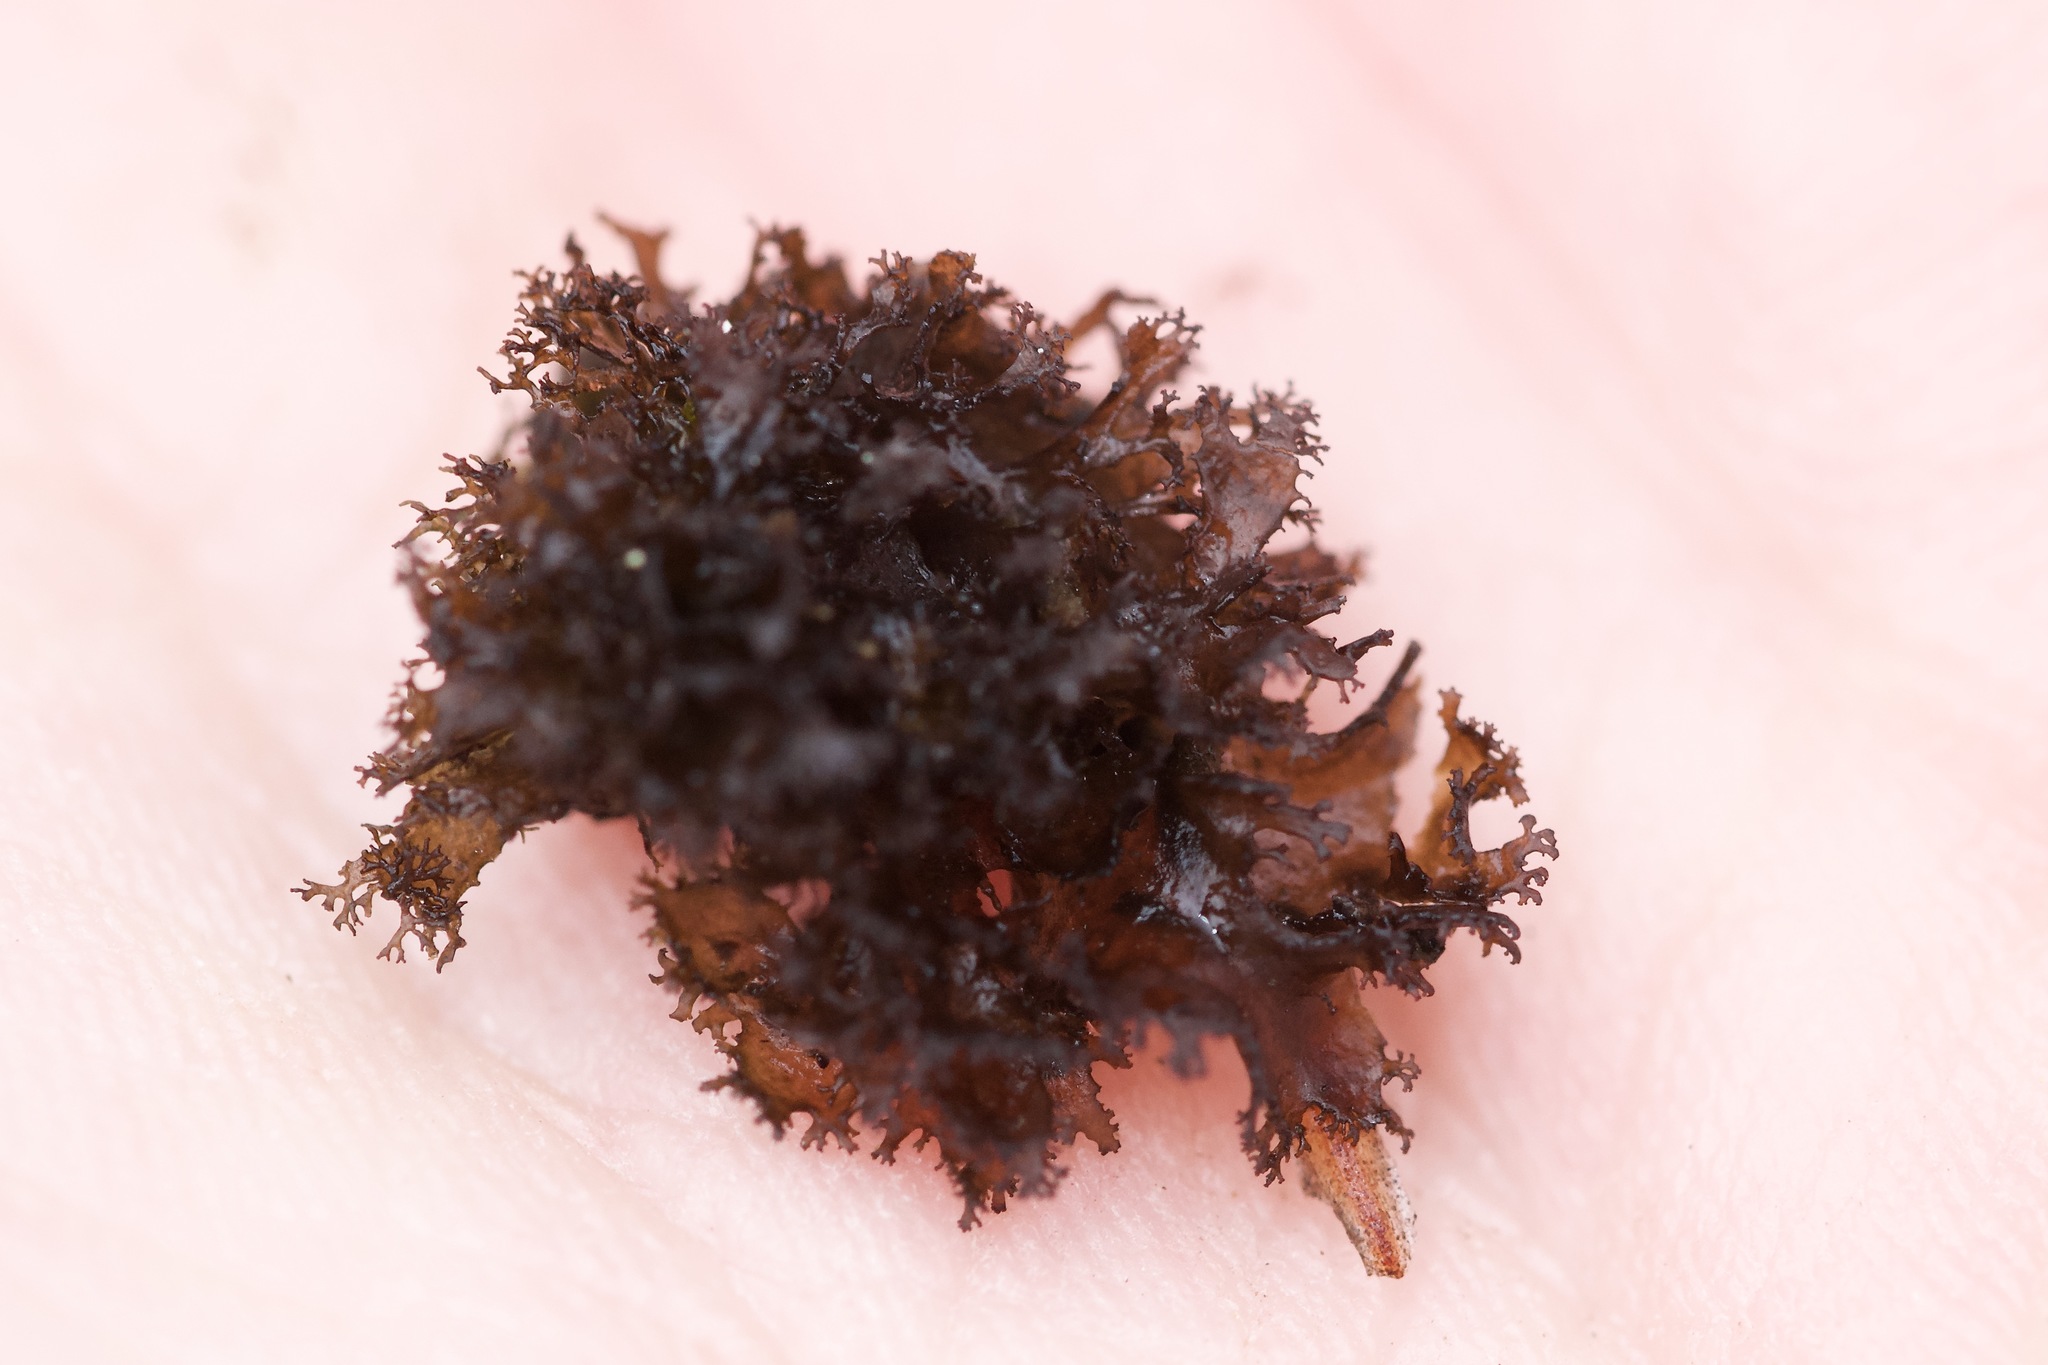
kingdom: Fungi
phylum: Ascomycota
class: Lecanoromycetes
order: Peltigerales
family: Collemataceae
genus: Scytinium
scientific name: Scytinium lichenoides
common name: Tattered jellyskin lichen
